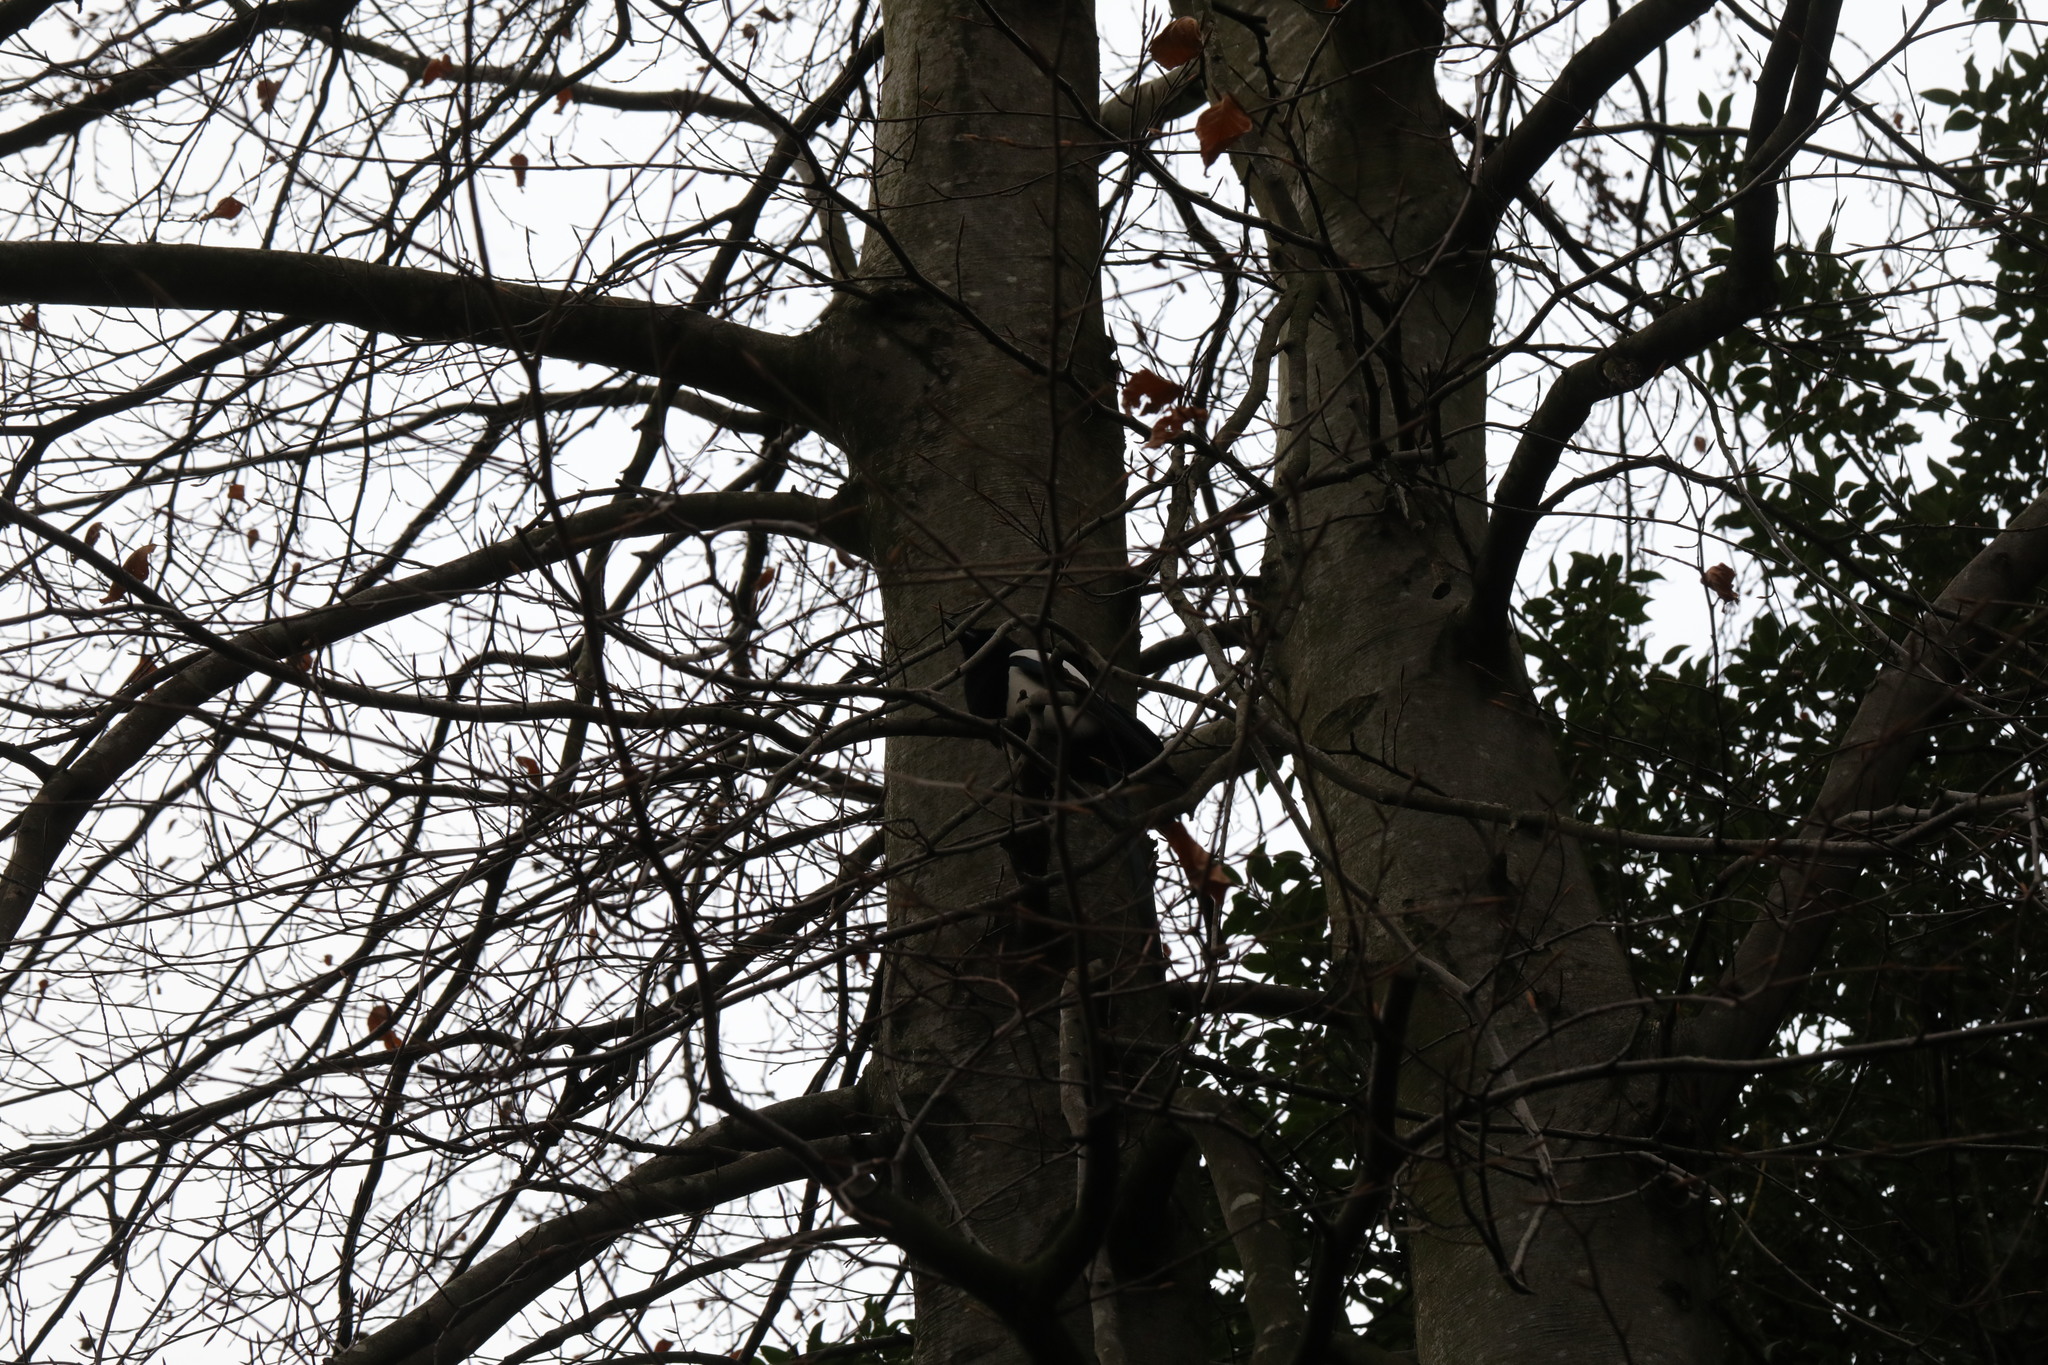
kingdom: Animalia
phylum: Chordata
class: Aves
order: Passeriformes
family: Corvidae
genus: Pica
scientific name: Pica pica
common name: Eurasian magpie
